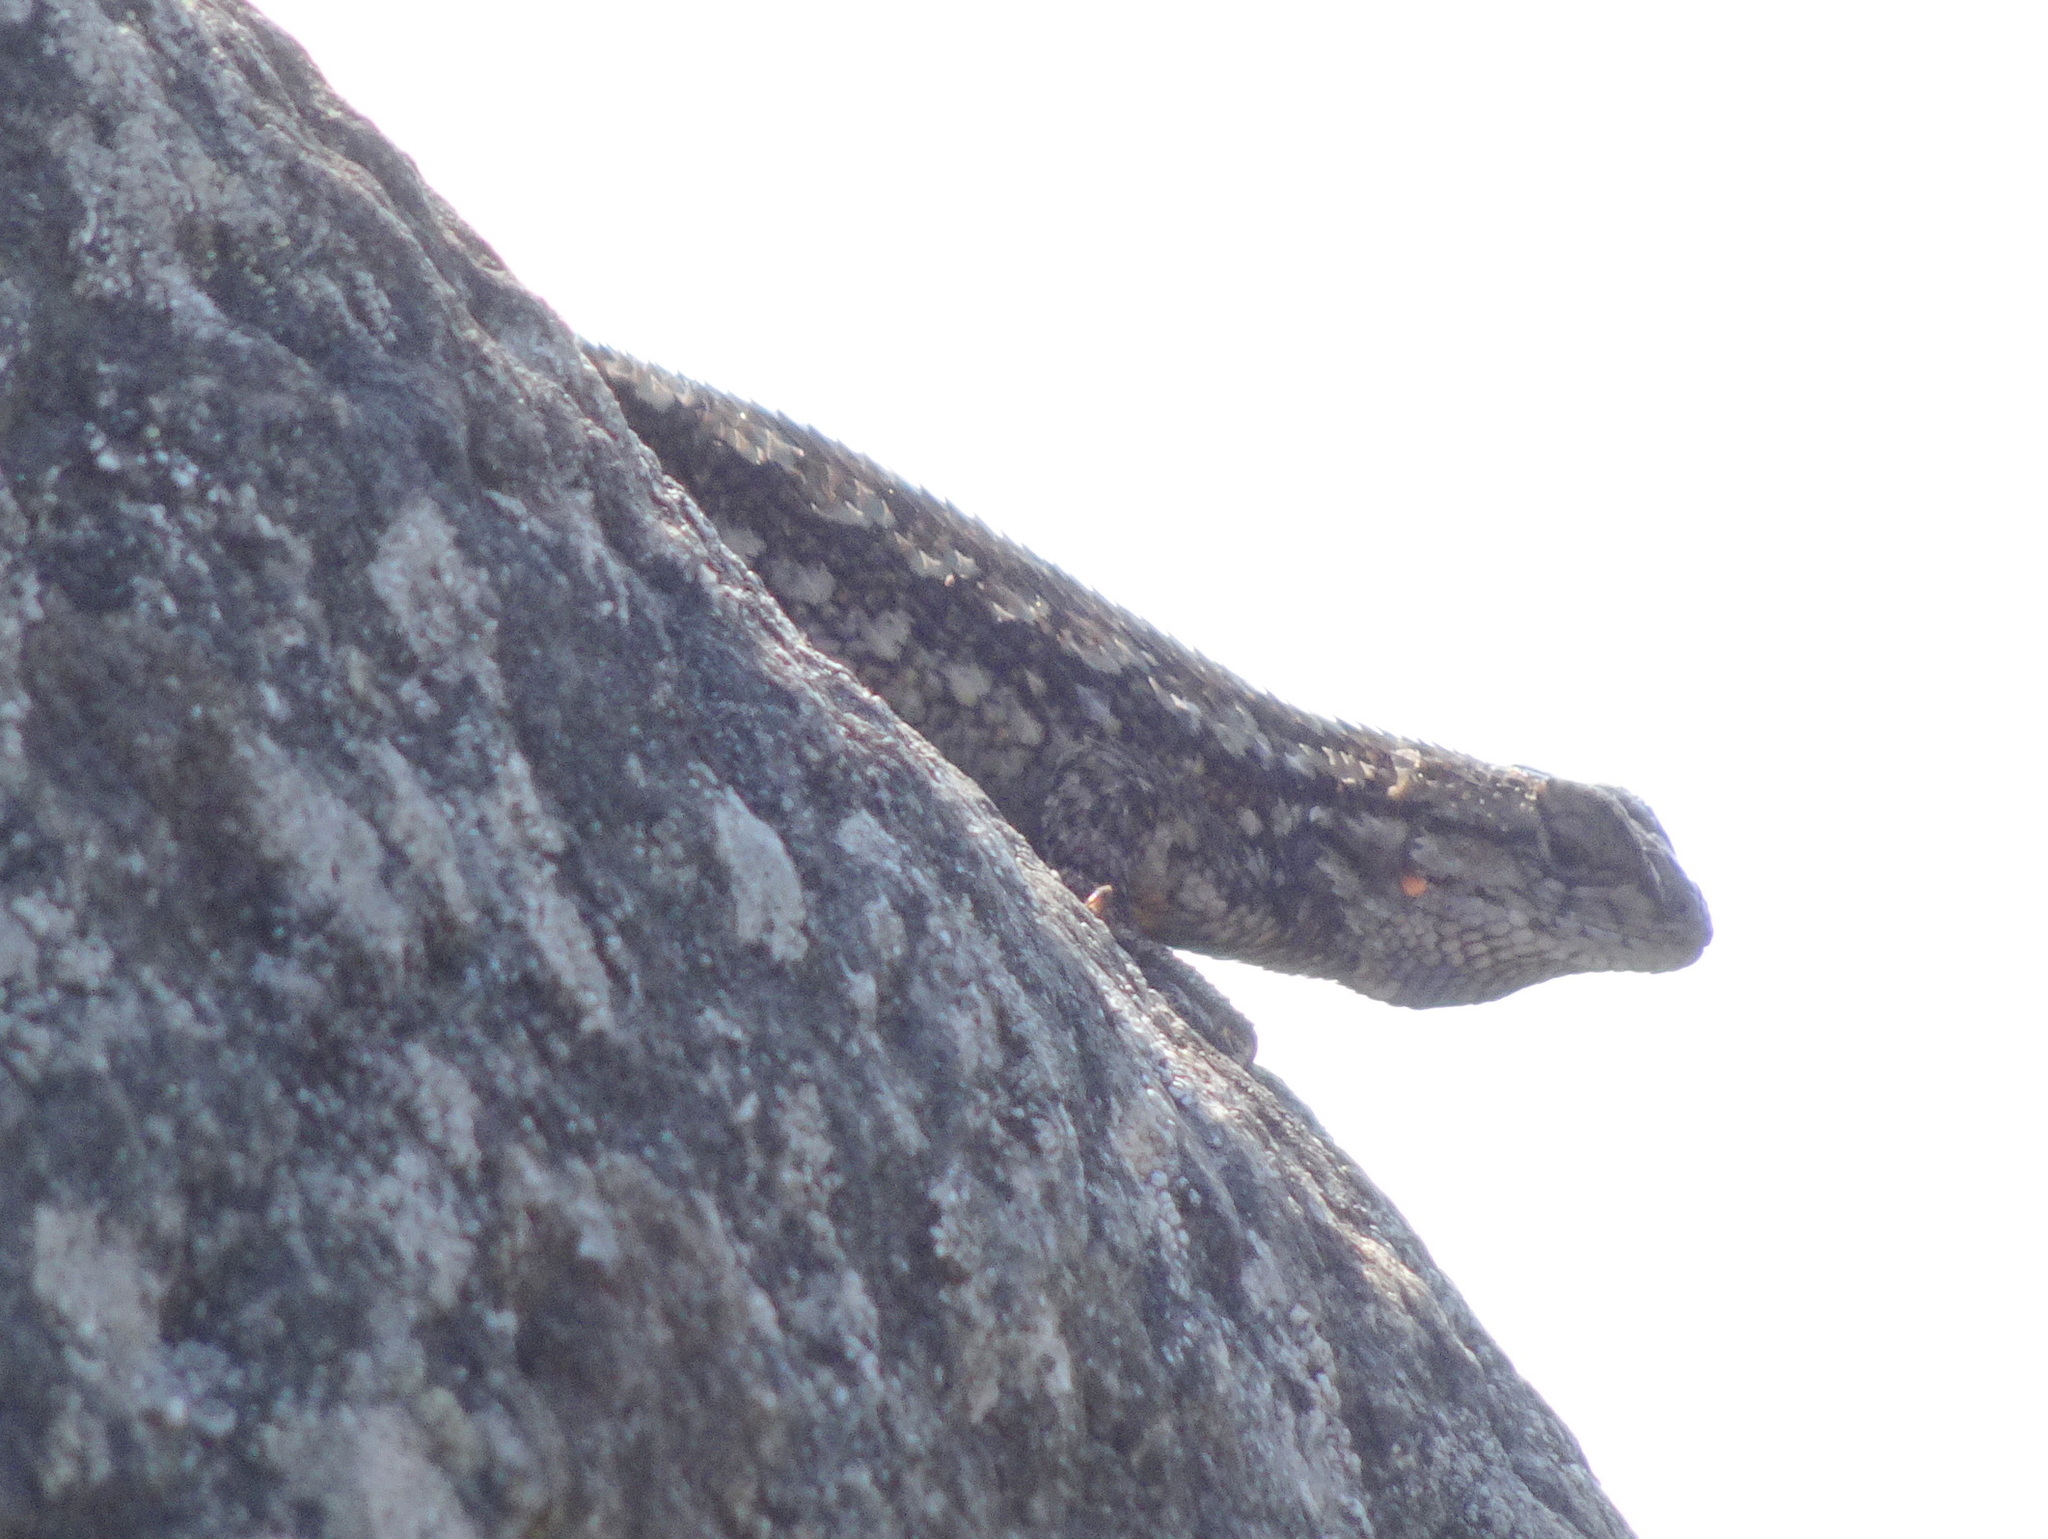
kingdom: Animalia
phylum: Chordata
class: Squamata
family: Phrynosomatidae
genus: Sceloporus
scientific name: Sceloporus occidentalis
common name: Western fence lizard
